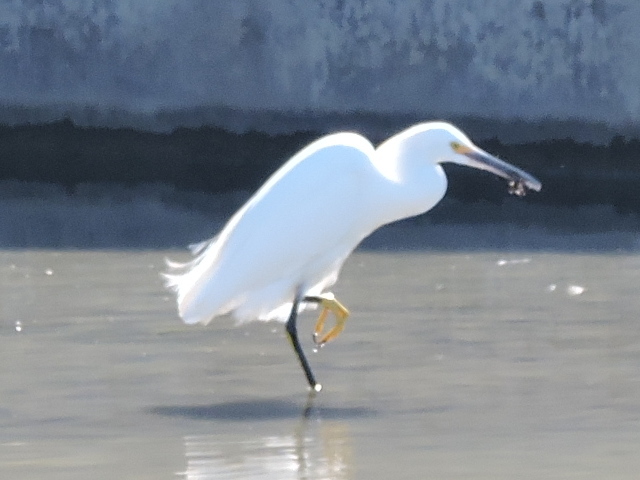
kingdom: Animalia
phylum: Chordata
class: Aves
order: Pelecaniformes
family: Ardeidae
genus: Egretta
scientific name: Egretta thula
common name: Snowy egret
